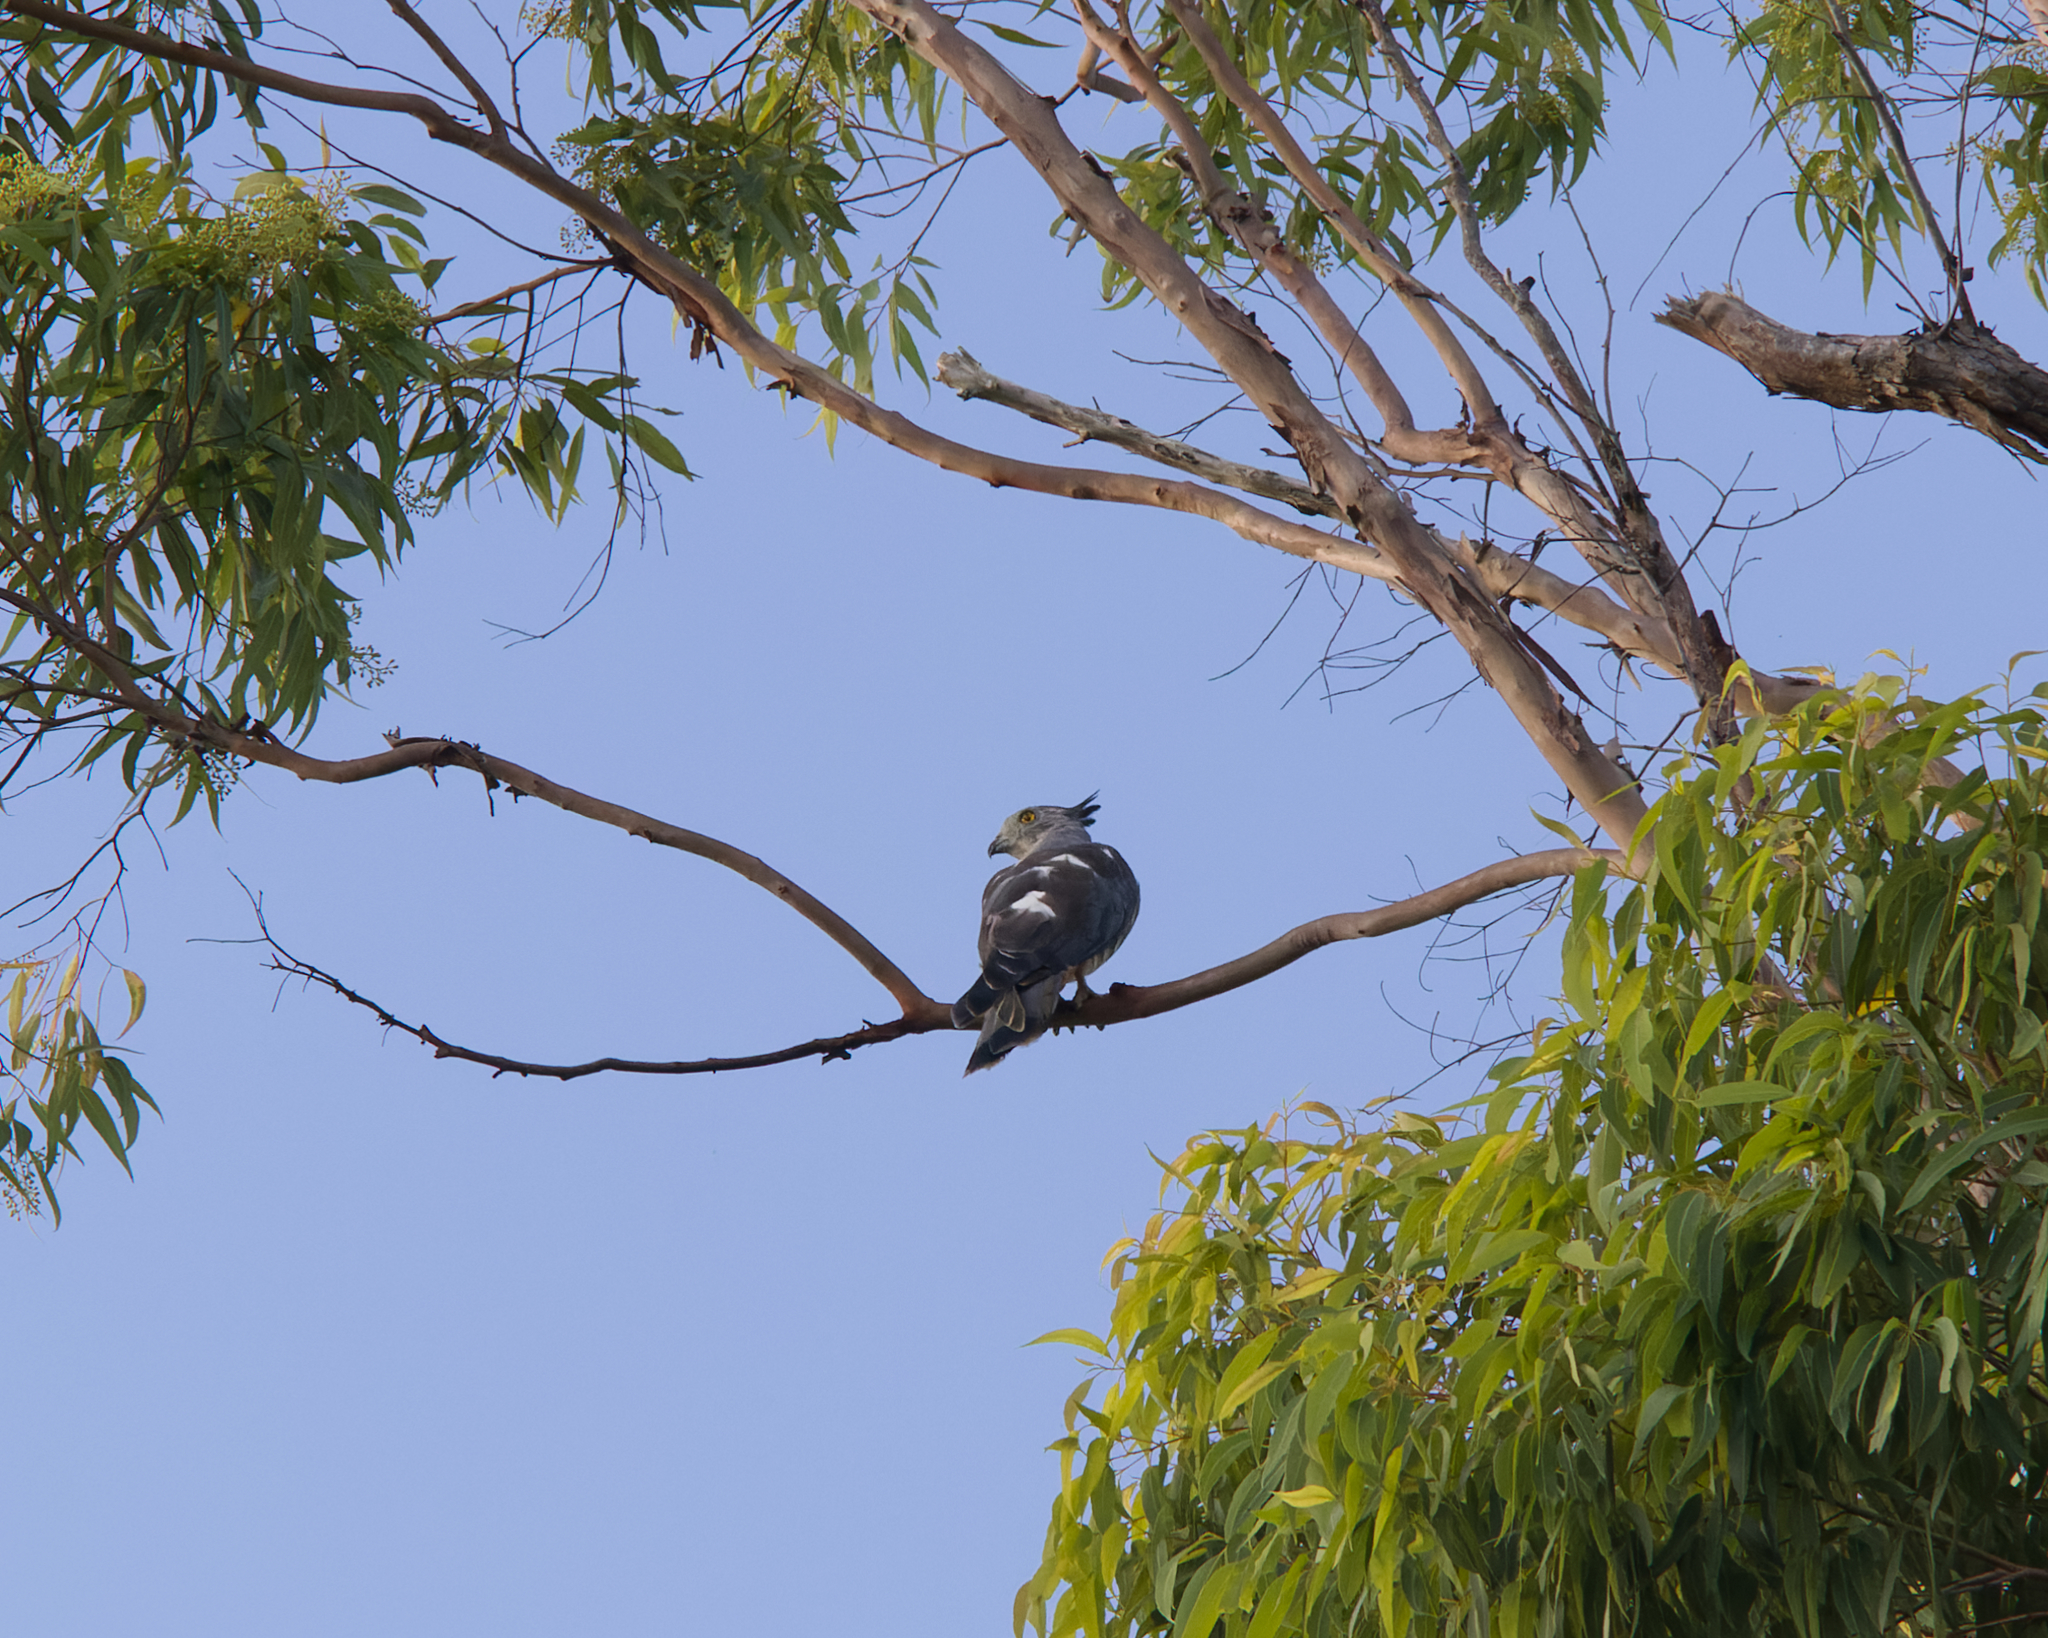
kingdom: Animalia
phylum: Chordata
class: Aves
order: Accipitriformes
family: Accipitridae
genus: Aviceda
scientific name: Aviceda subcristata
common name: Pacific baza
